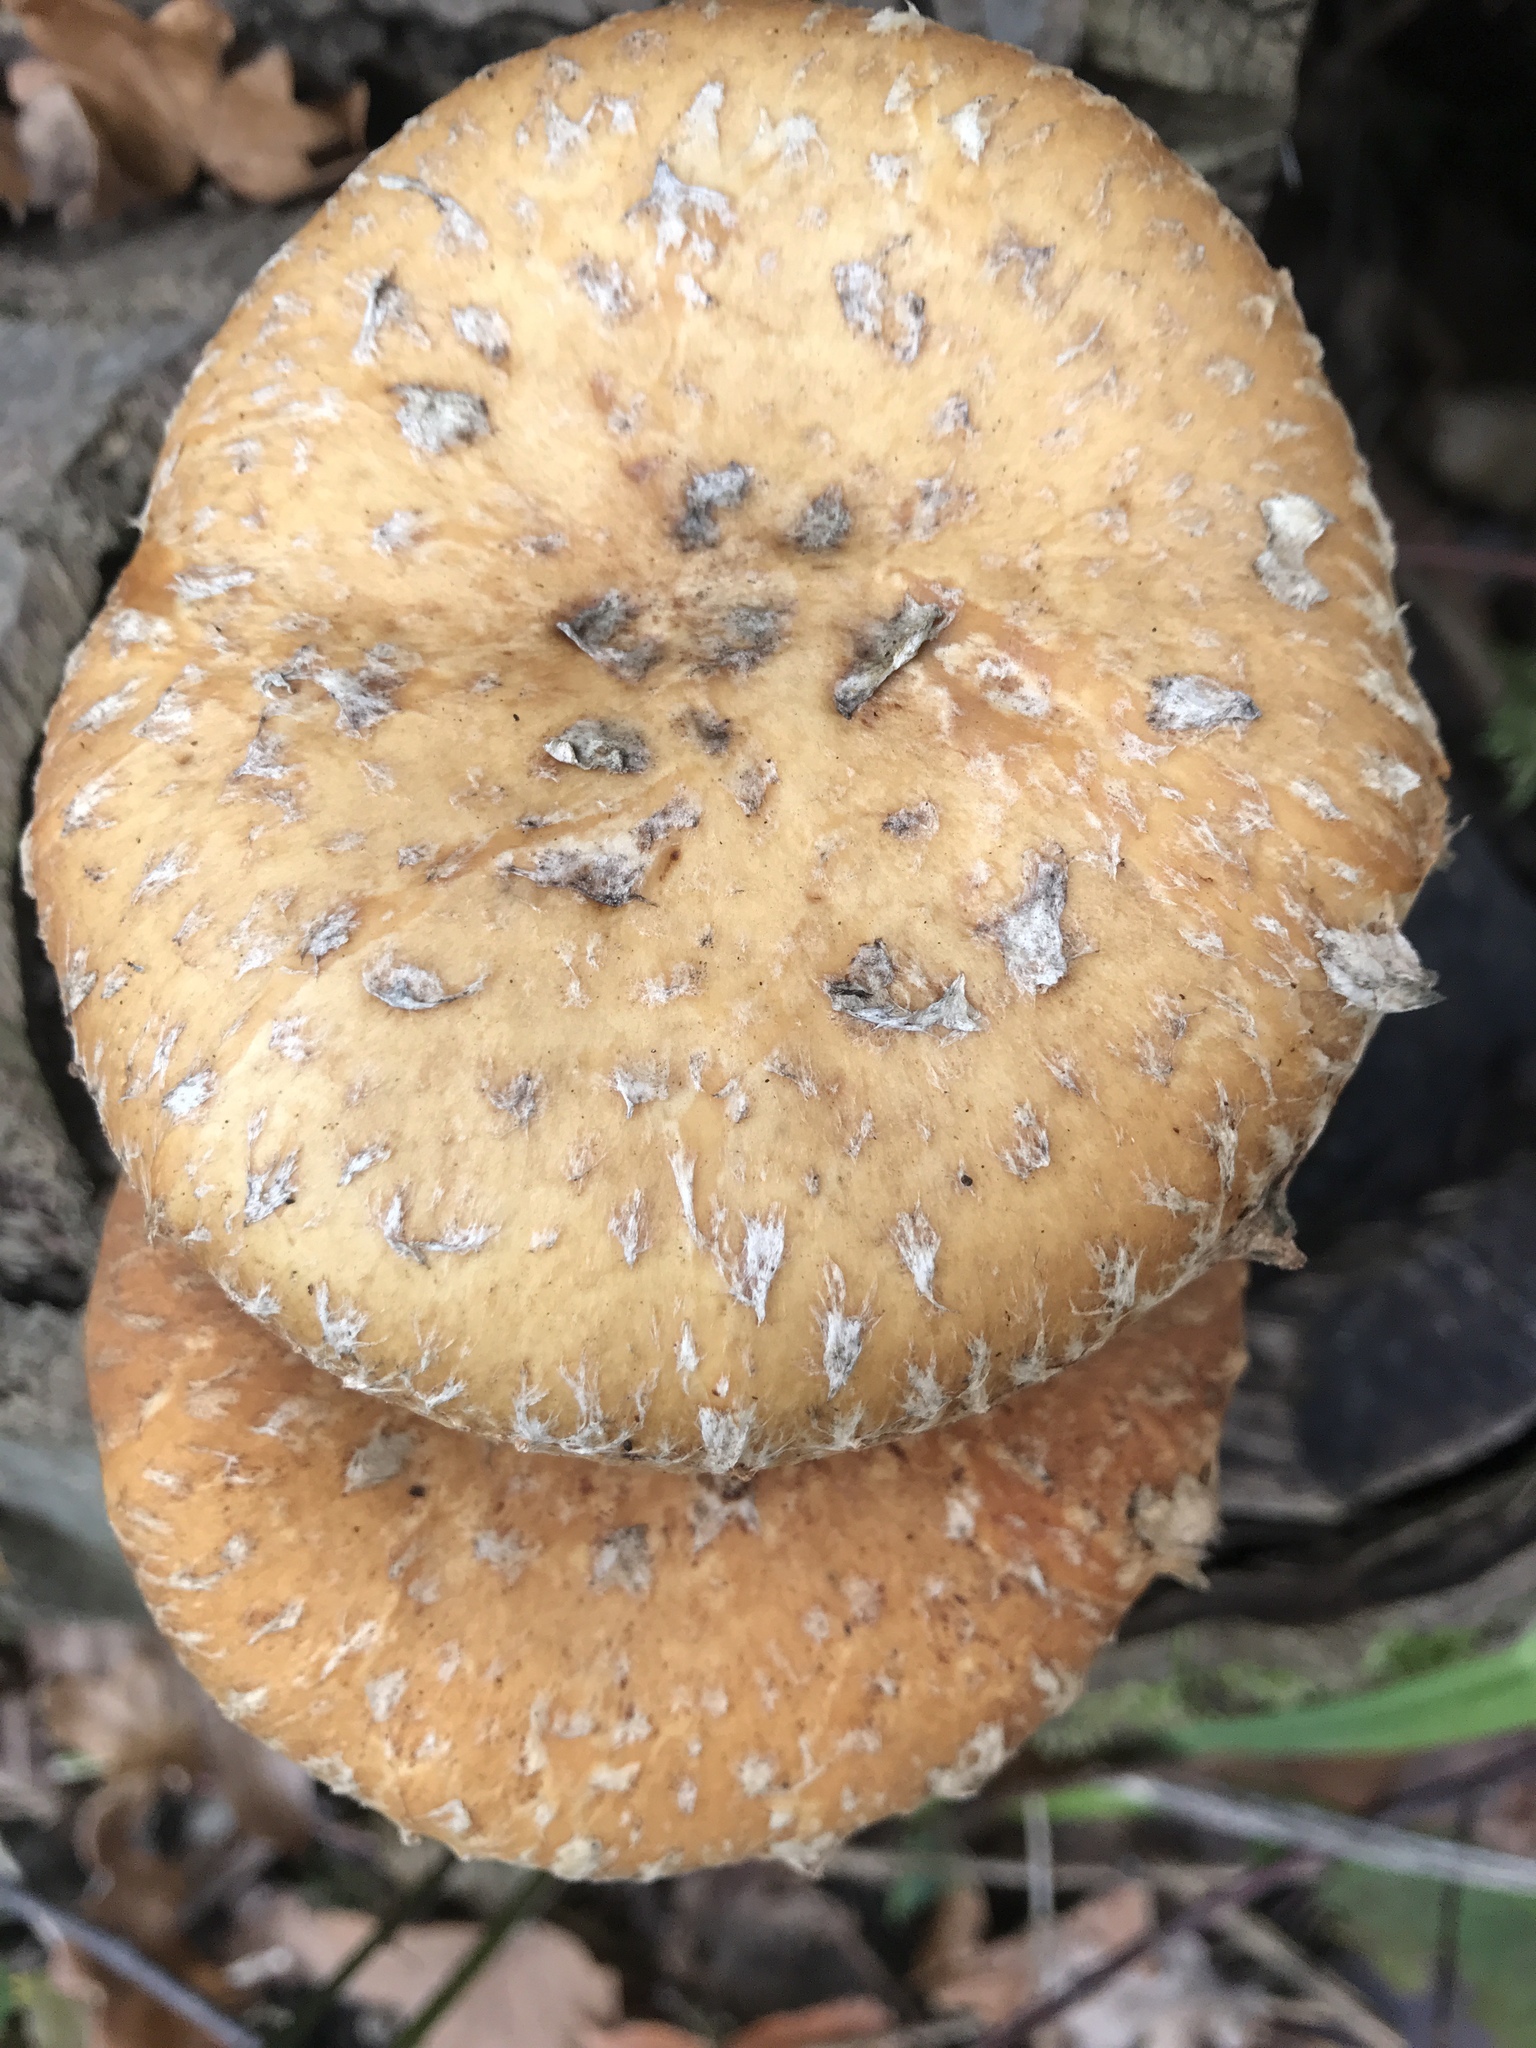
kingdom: Fungi
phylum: Basidiomycota
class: Agaricomycetes
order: Agaricales
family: Strophariaceae
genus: Pholiota
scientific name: Pholiota populnea
